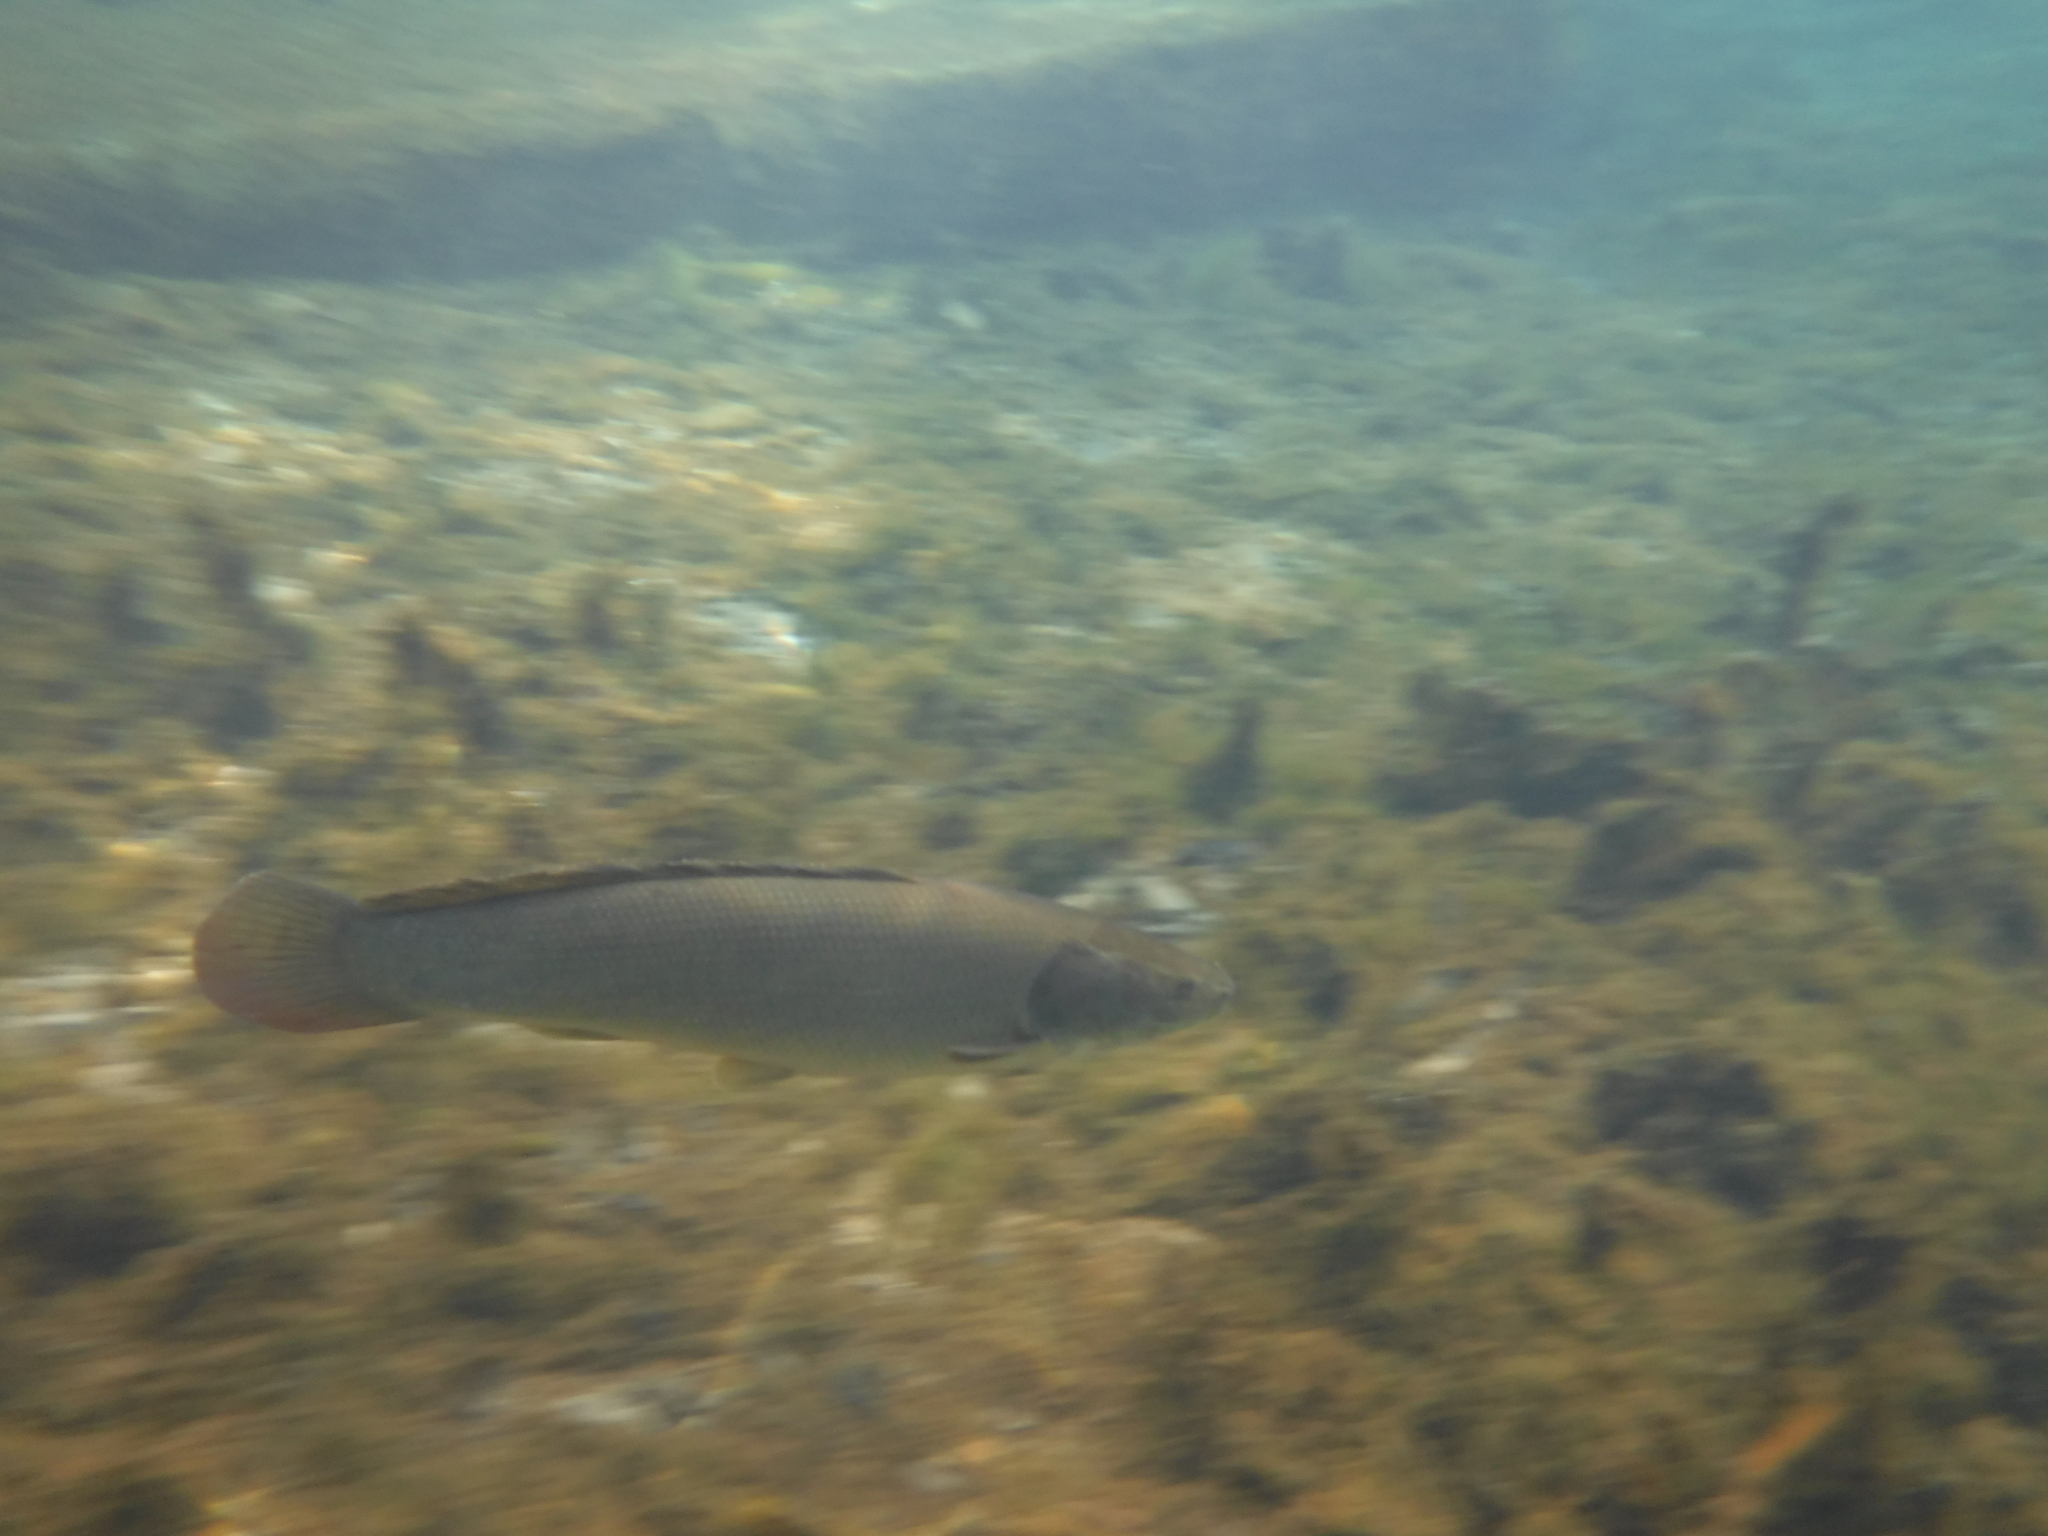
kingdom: Animalia
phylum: Chordata
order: Amiiformes
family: Amiidae
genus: Amia
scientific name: Amia calva
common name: Bowfin
